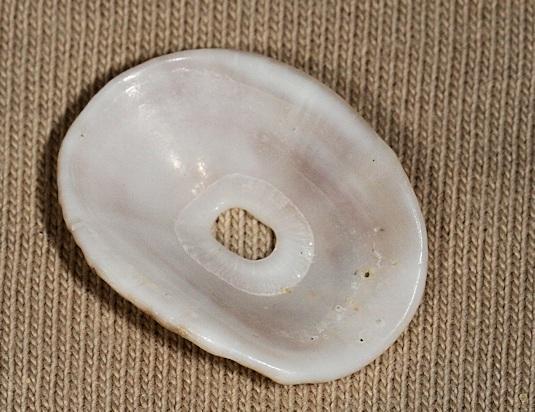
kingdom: Animalia
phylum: Mollusca
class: Gastropoda
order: Lepetellida
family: Fissurellidae
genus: Dendrofissurella
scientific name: Dendrofissurella scutellum
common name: Saddle-shaped keyhole limpet
